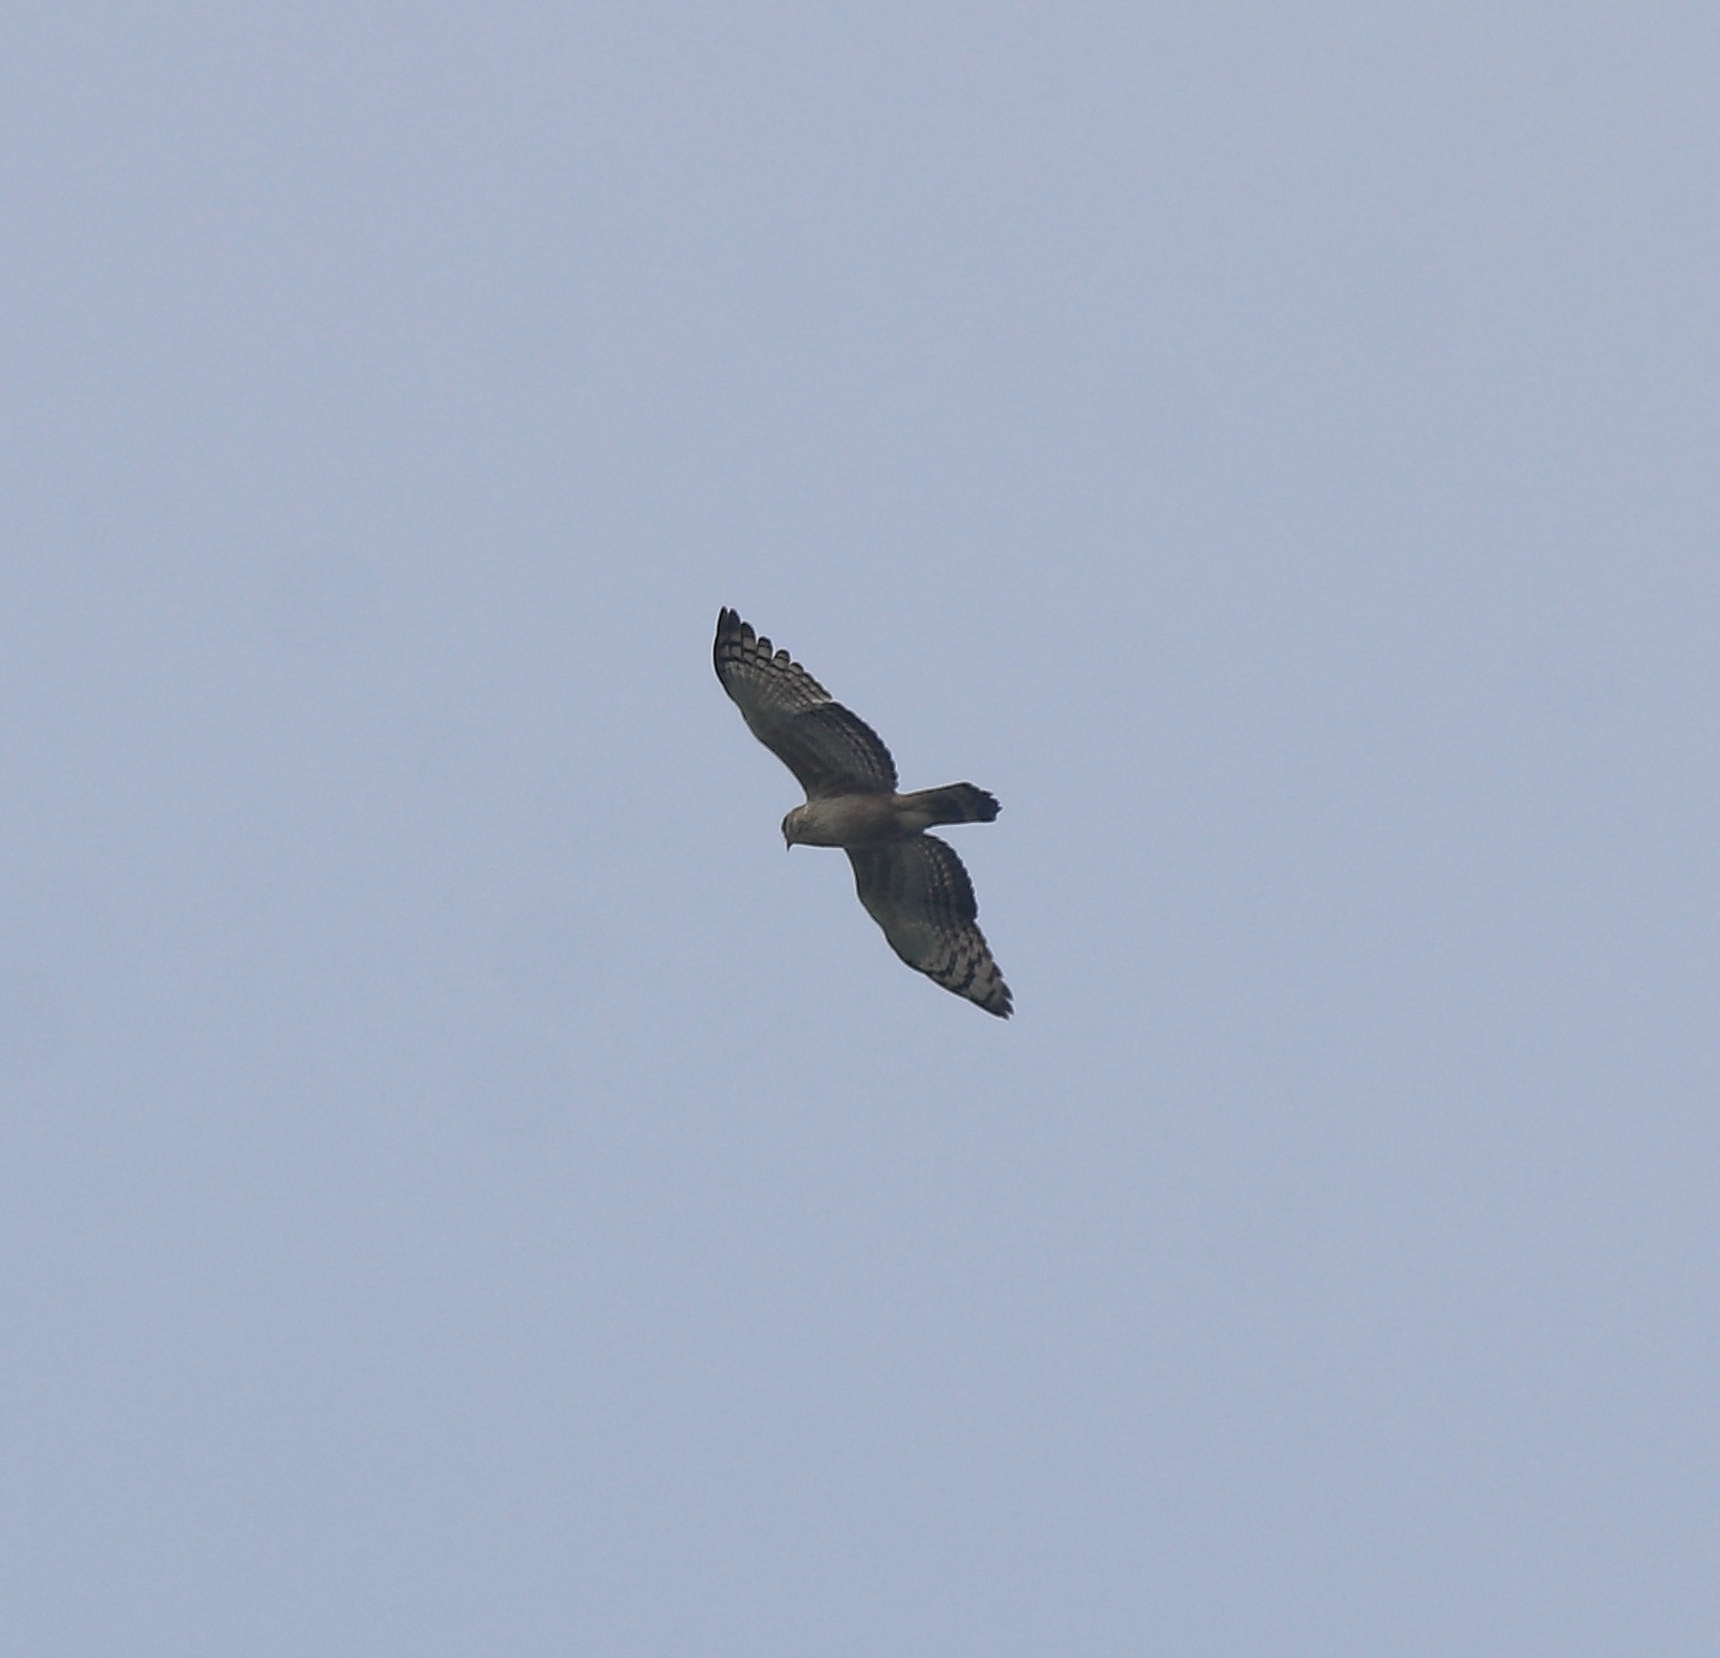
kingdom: Animalia
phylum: Chordata
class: Aves
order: Accipitriformes
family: Accipitridae
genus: Pernis
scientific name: Pernis ptilorhynchus
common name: Crested honey buzzard
